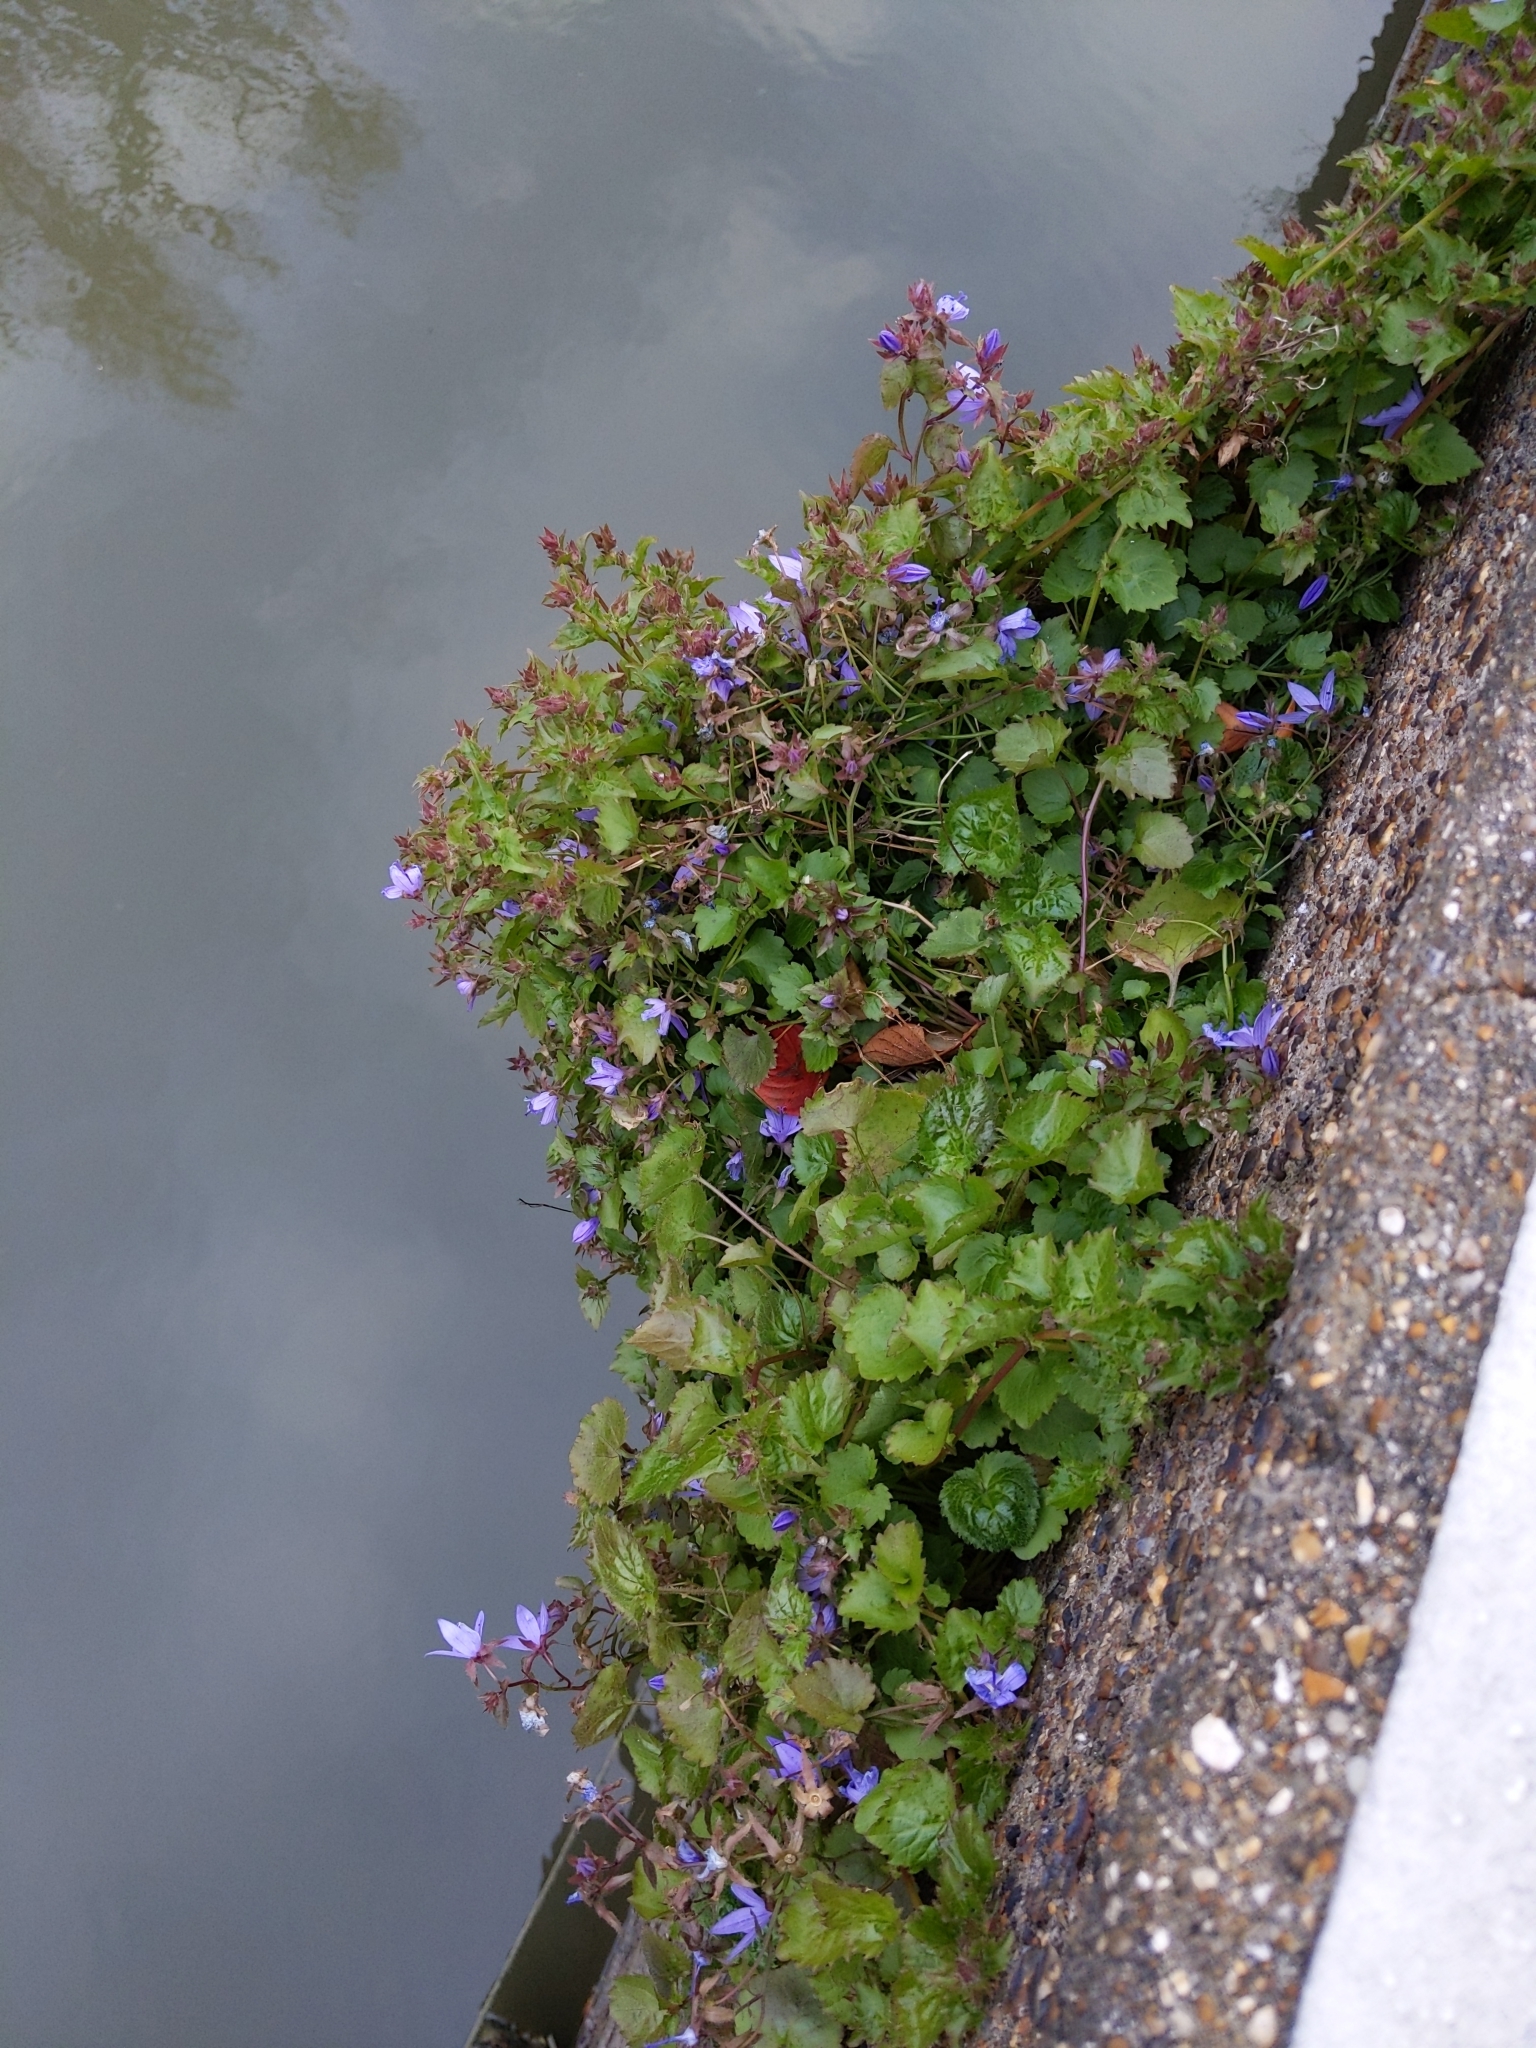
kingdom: Plantae
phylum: Tracheophyta
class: Magnoliopsida
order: Asterales
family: Campanulaceae
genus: Campanula
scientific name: Campanula poscharskyana
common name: Trailing bellflower
